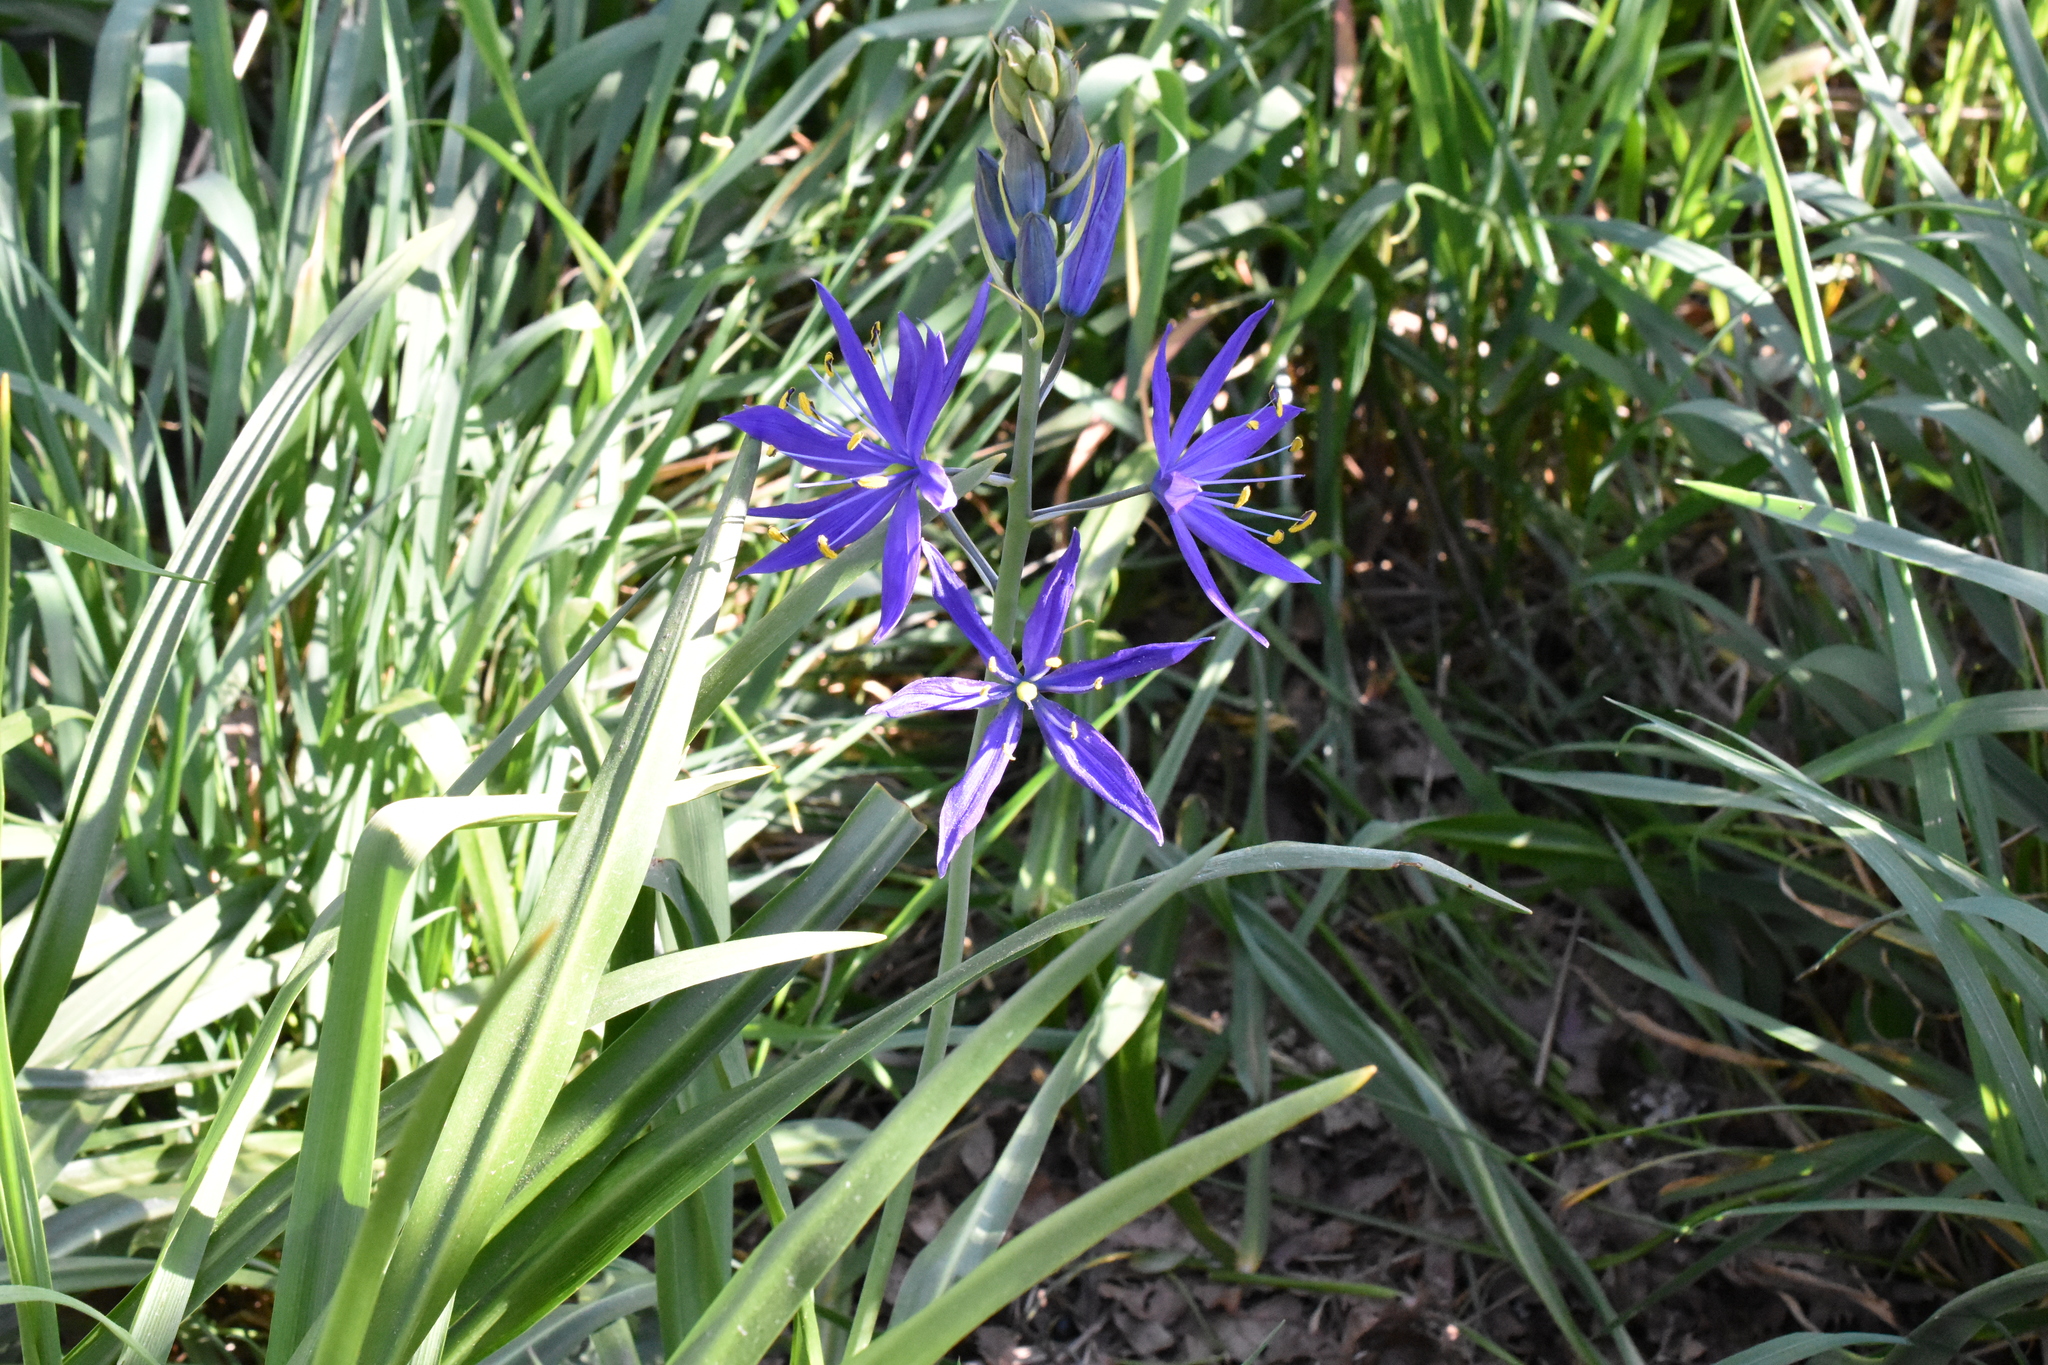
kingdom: Plantae
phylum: Tracheophyta
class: Liliopsida
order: Asparagales
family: Asparagaceae
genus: Camassia
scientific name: Camassia leichtlinii
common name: Leichtlin's camas
